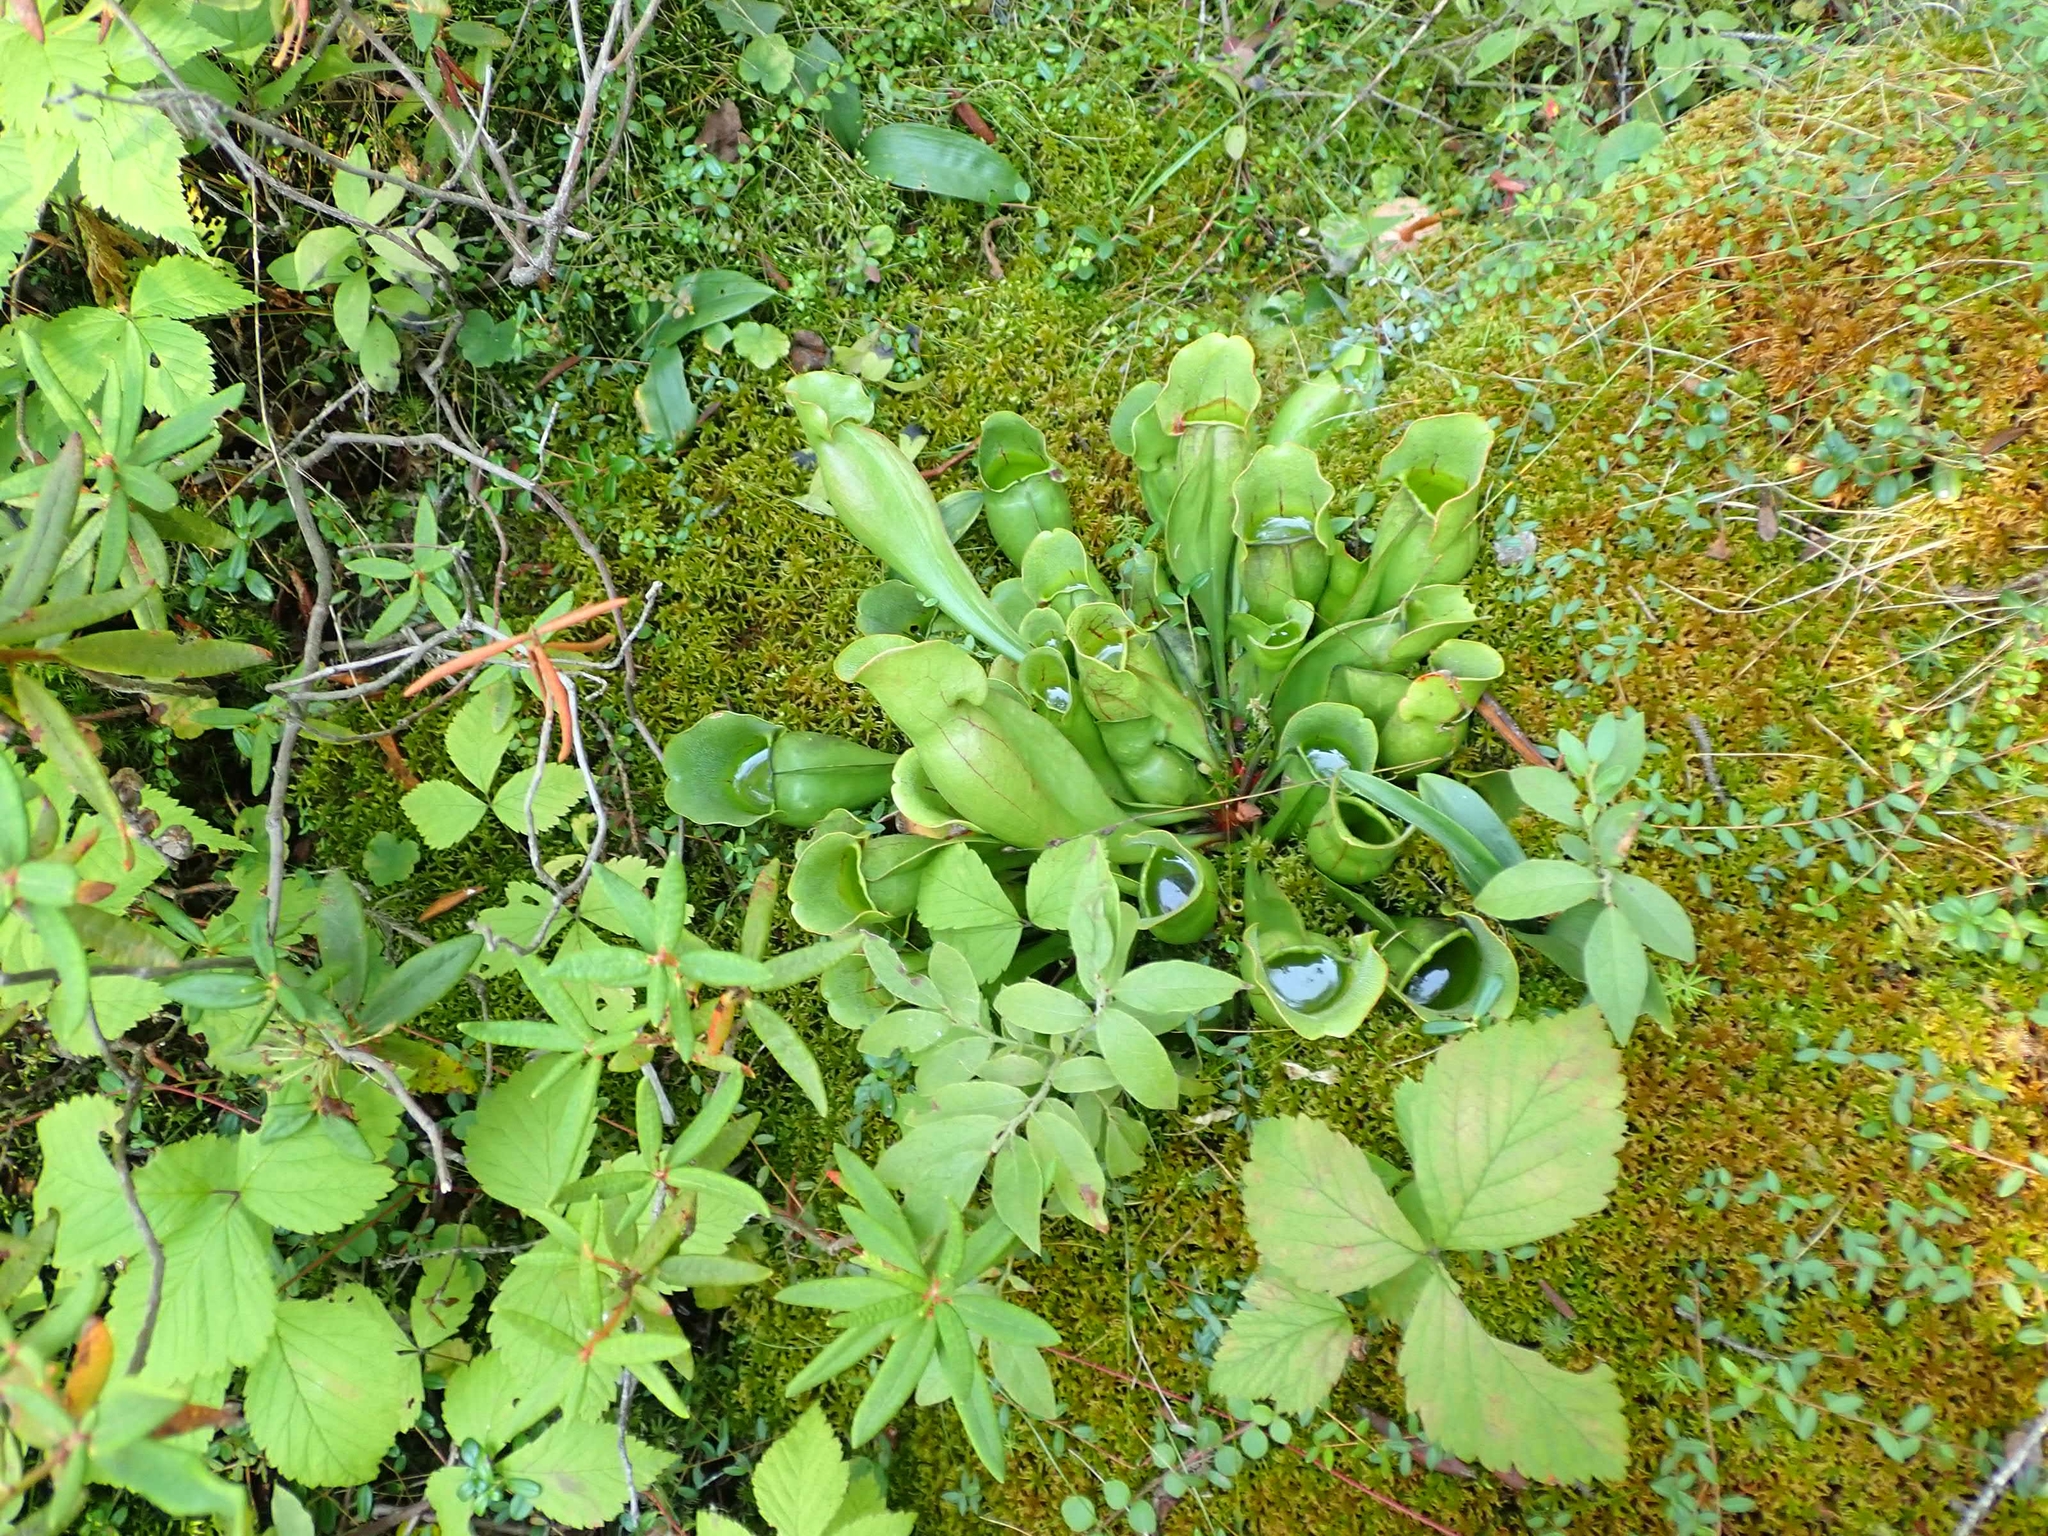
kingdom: Plantae
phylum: Tracheophyta
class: Magnoliopsida
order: Ericales
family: Sarraceniaceae
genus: Sarracenia
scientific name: Sarracenia purpurea
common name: Pitcherplant
